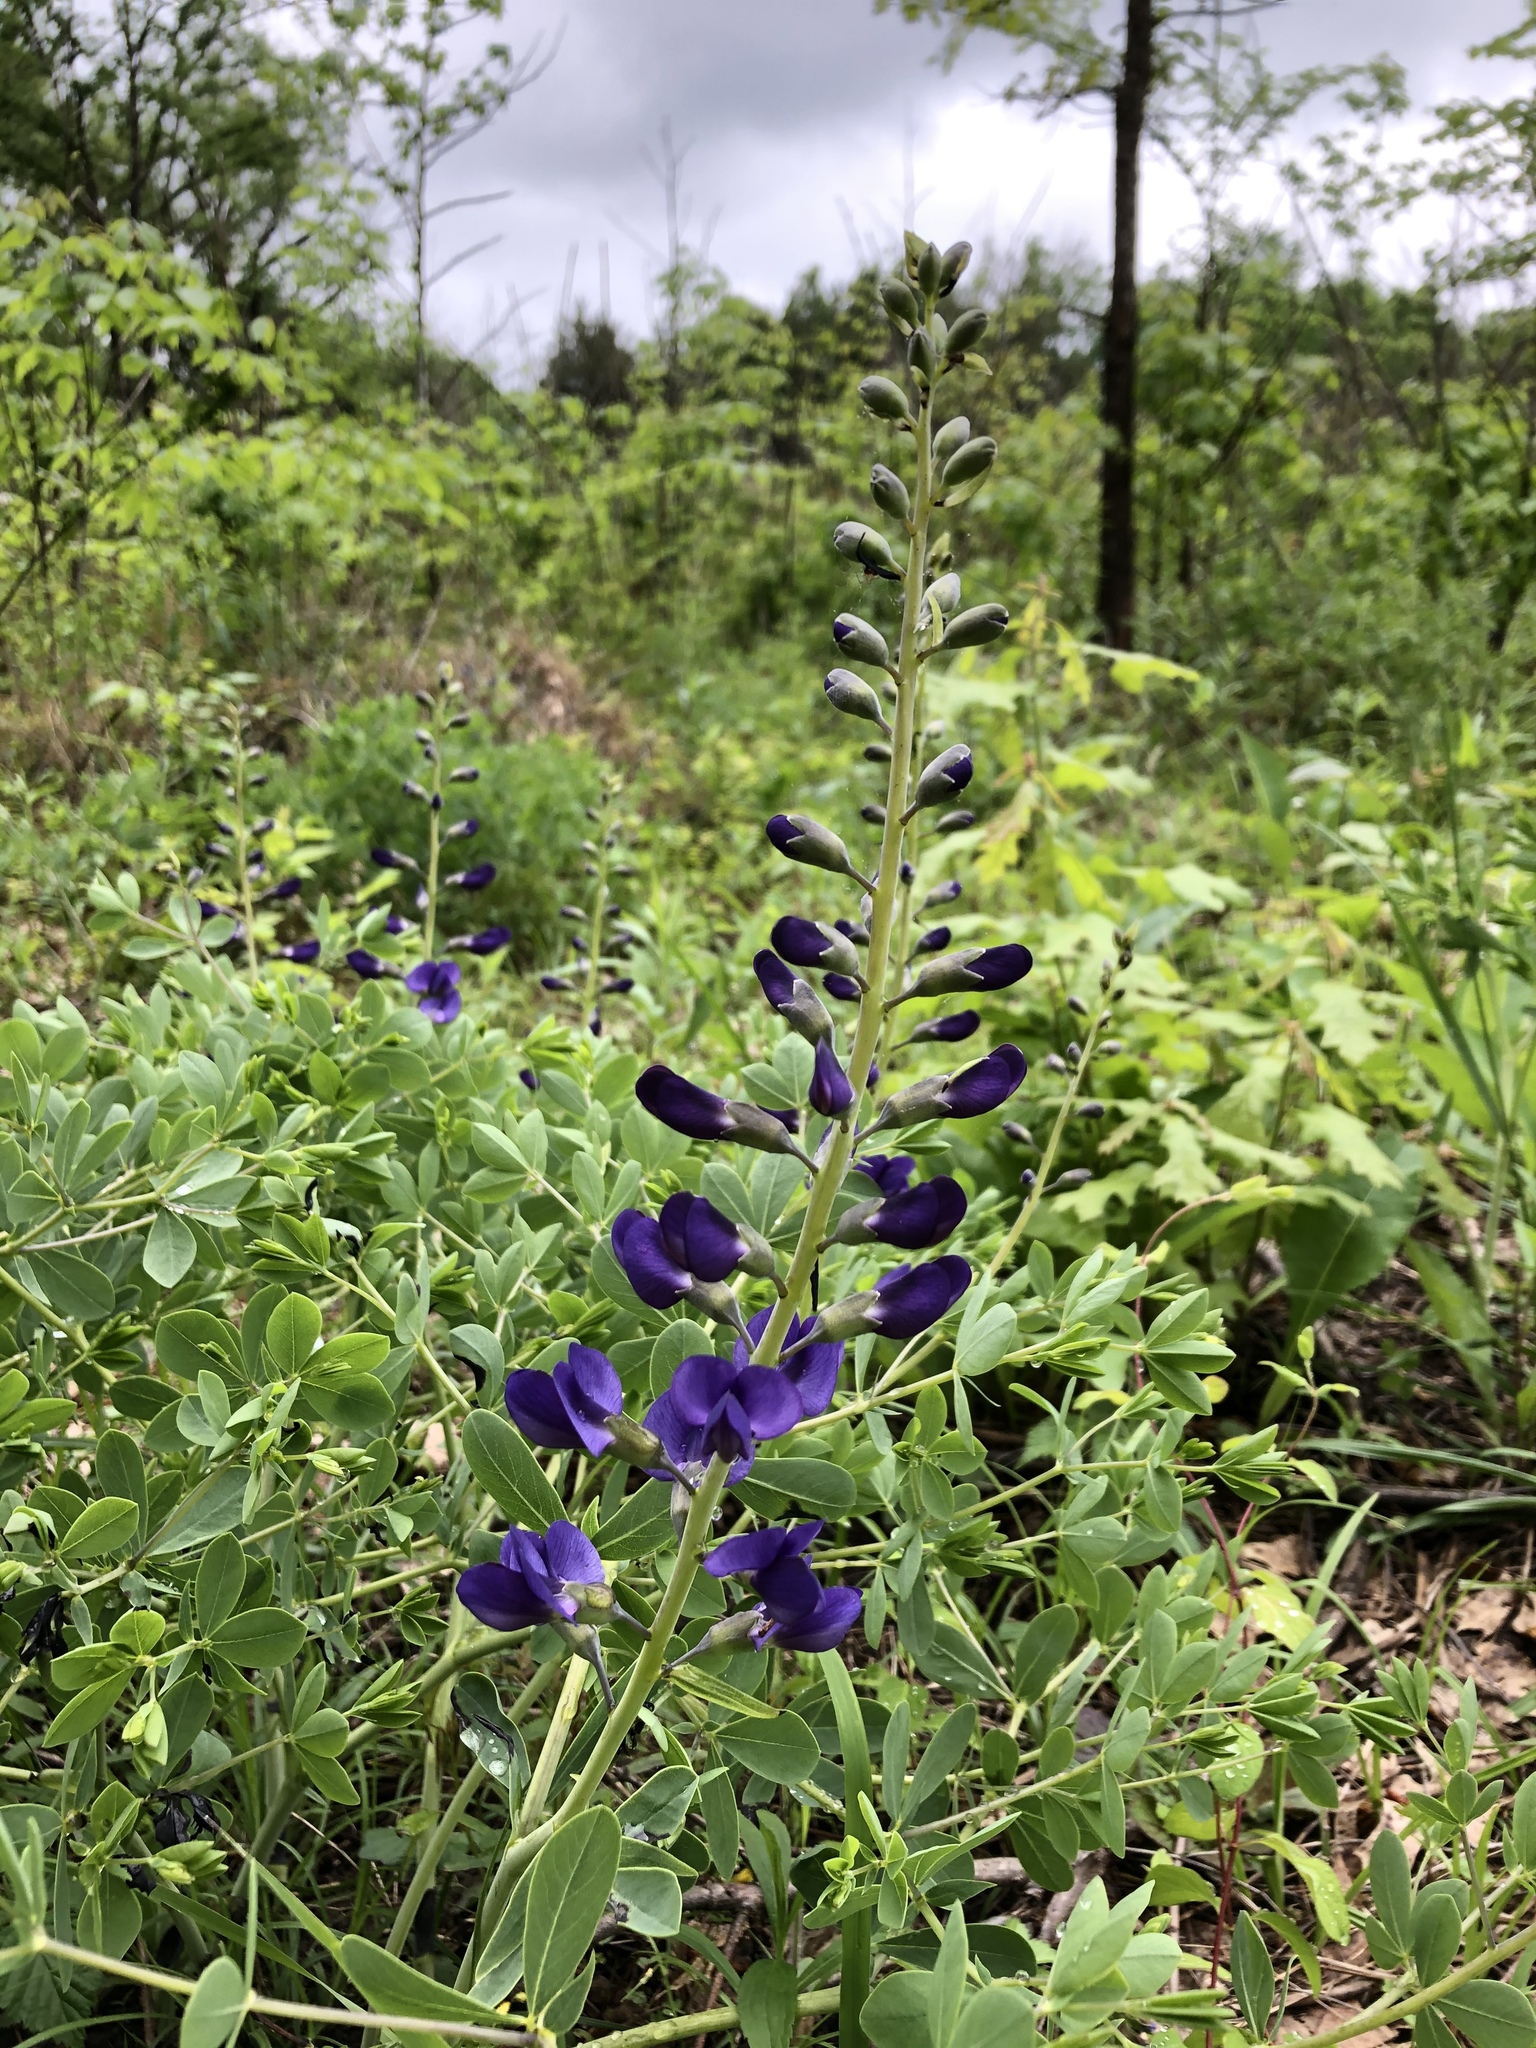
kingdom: Plantae
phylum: Tracheophyta
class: Magnoliopsida
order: Fabales
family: Fabaceae
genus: Baptisia
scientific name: Baptisia aberrans
